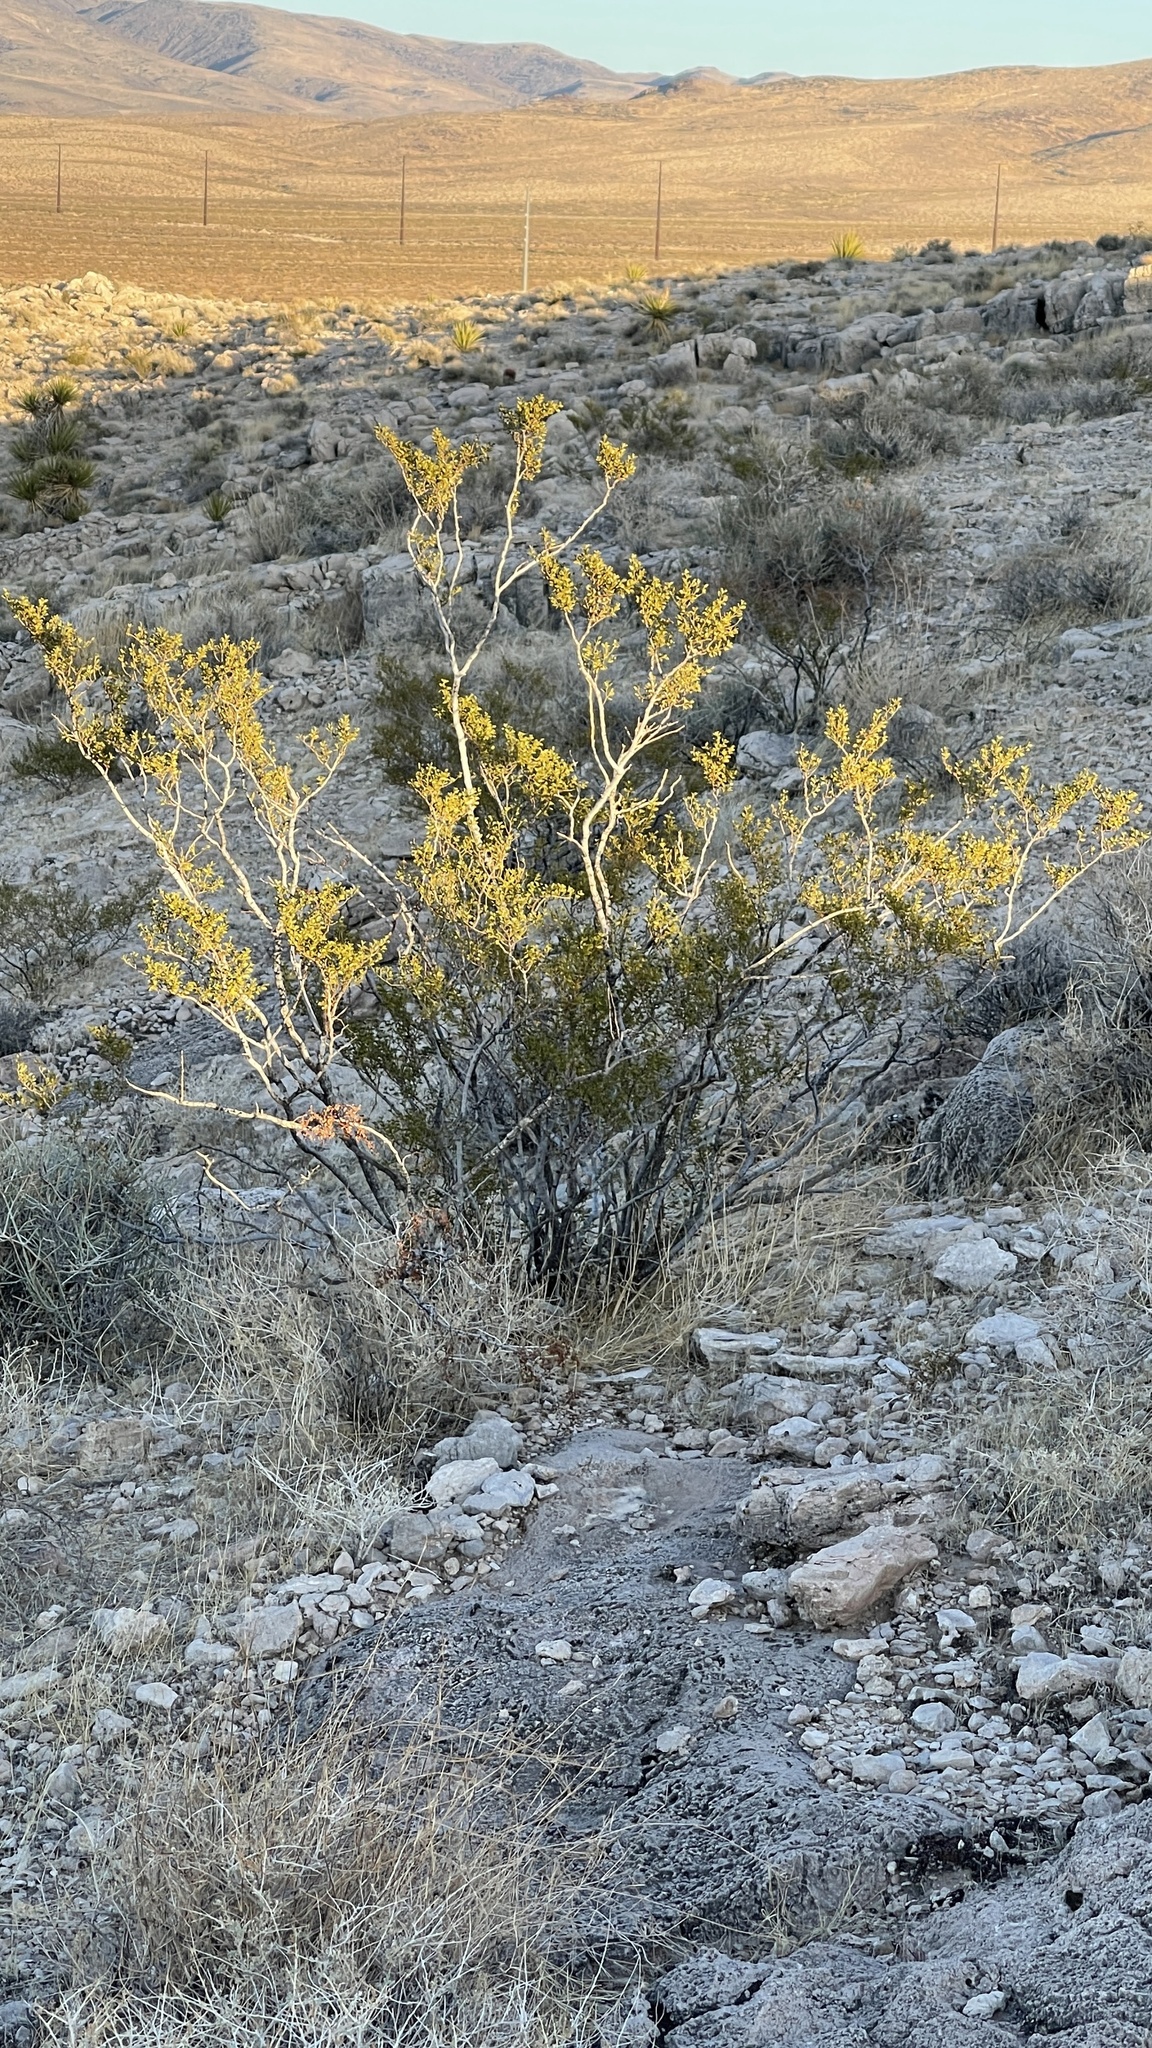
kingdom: Plantae
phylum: Tracheophyta
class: Magnoliopsida
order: Zygophyllales
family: Zygophyllaceae
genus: Larrea
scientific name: Larrea tridentata
